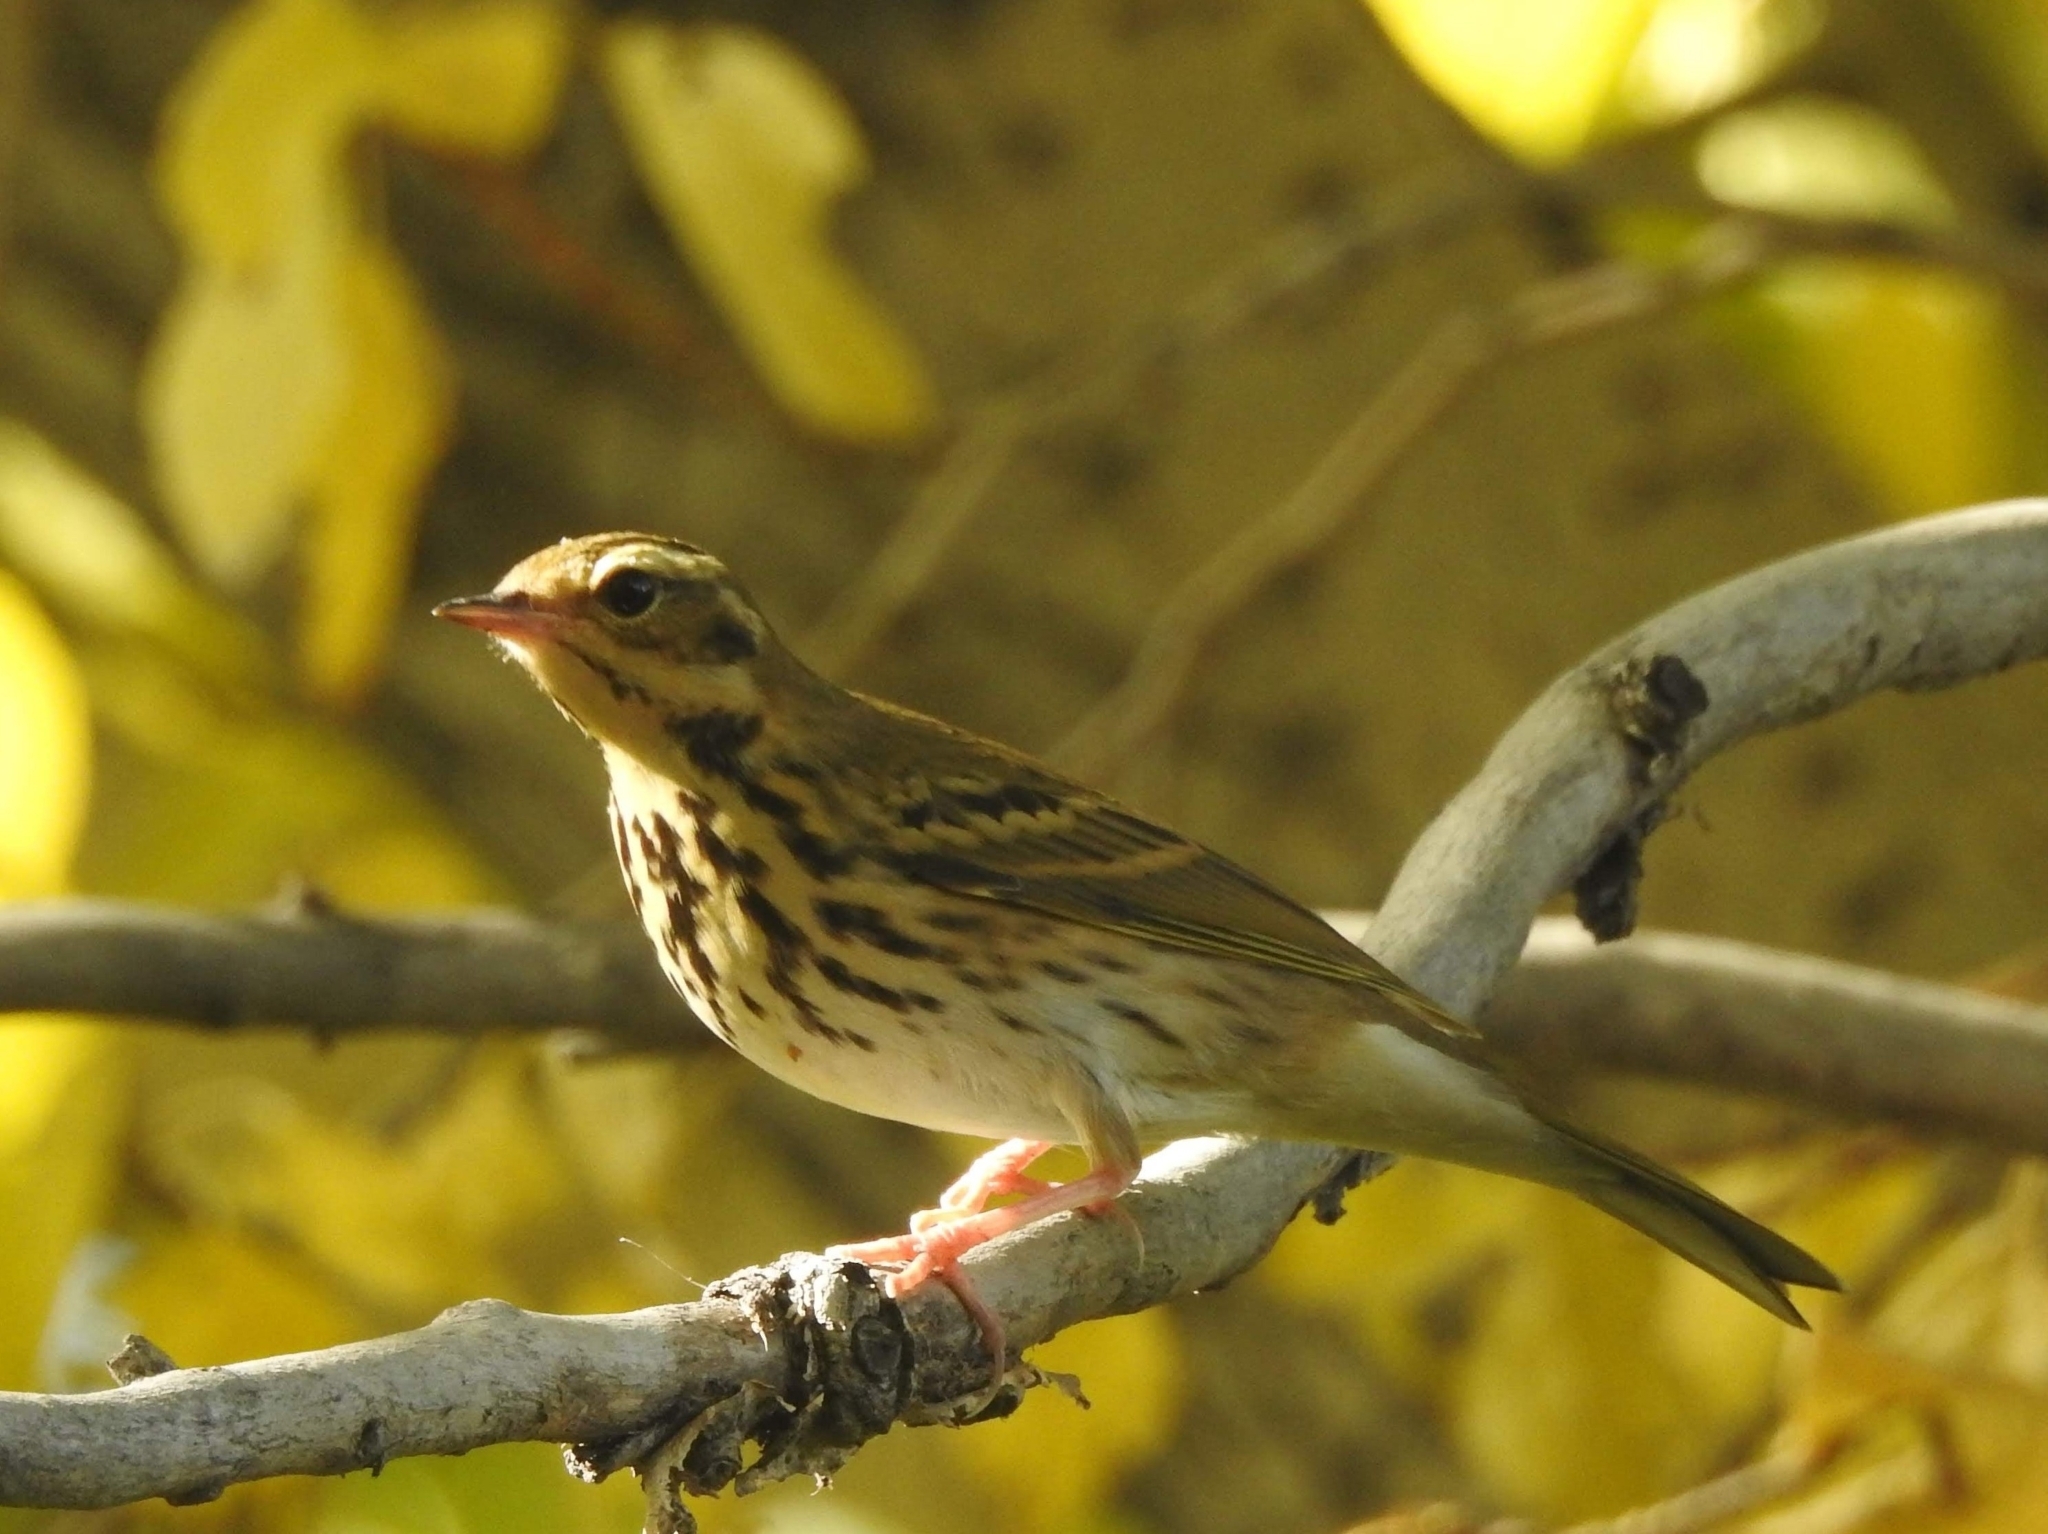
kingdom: Animalia
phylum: Chordata
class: Aves
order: Passeriformes
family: Motacillidae
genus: Anthus
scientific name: Anthus hodgsoni
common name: Olive-backed pipit
